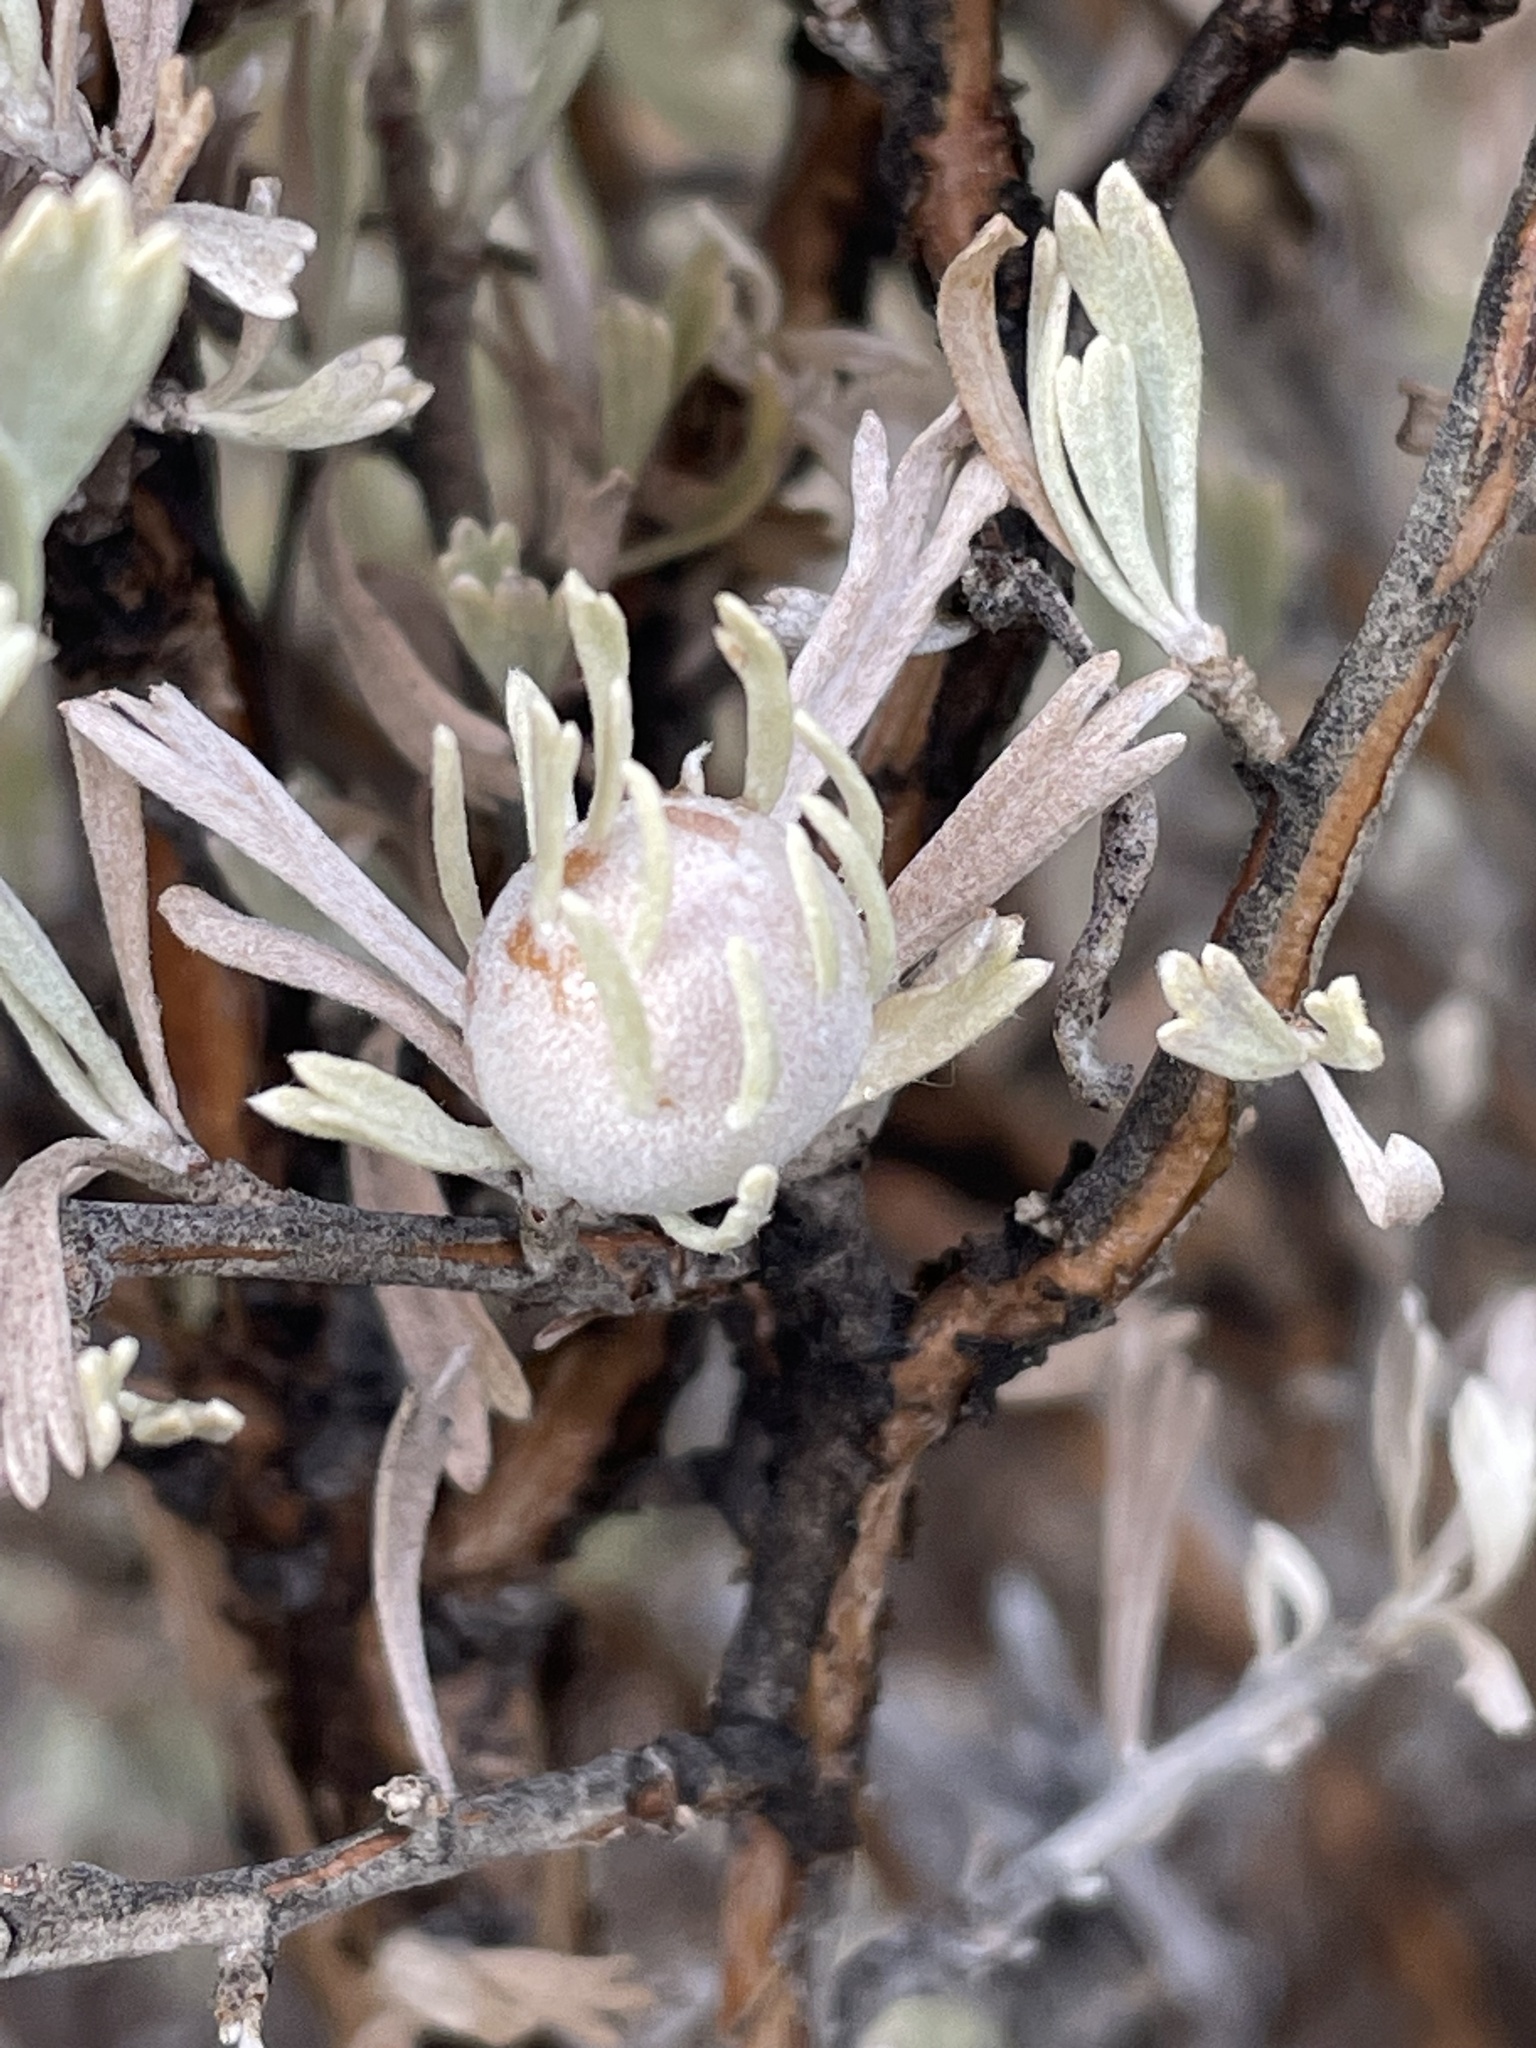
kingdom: Animalia
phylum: Arthropoda
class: Insecta
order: Diptera
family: Cecidomyiidae
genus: Rhopalomyia
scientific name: Rhopalomyia obovata
